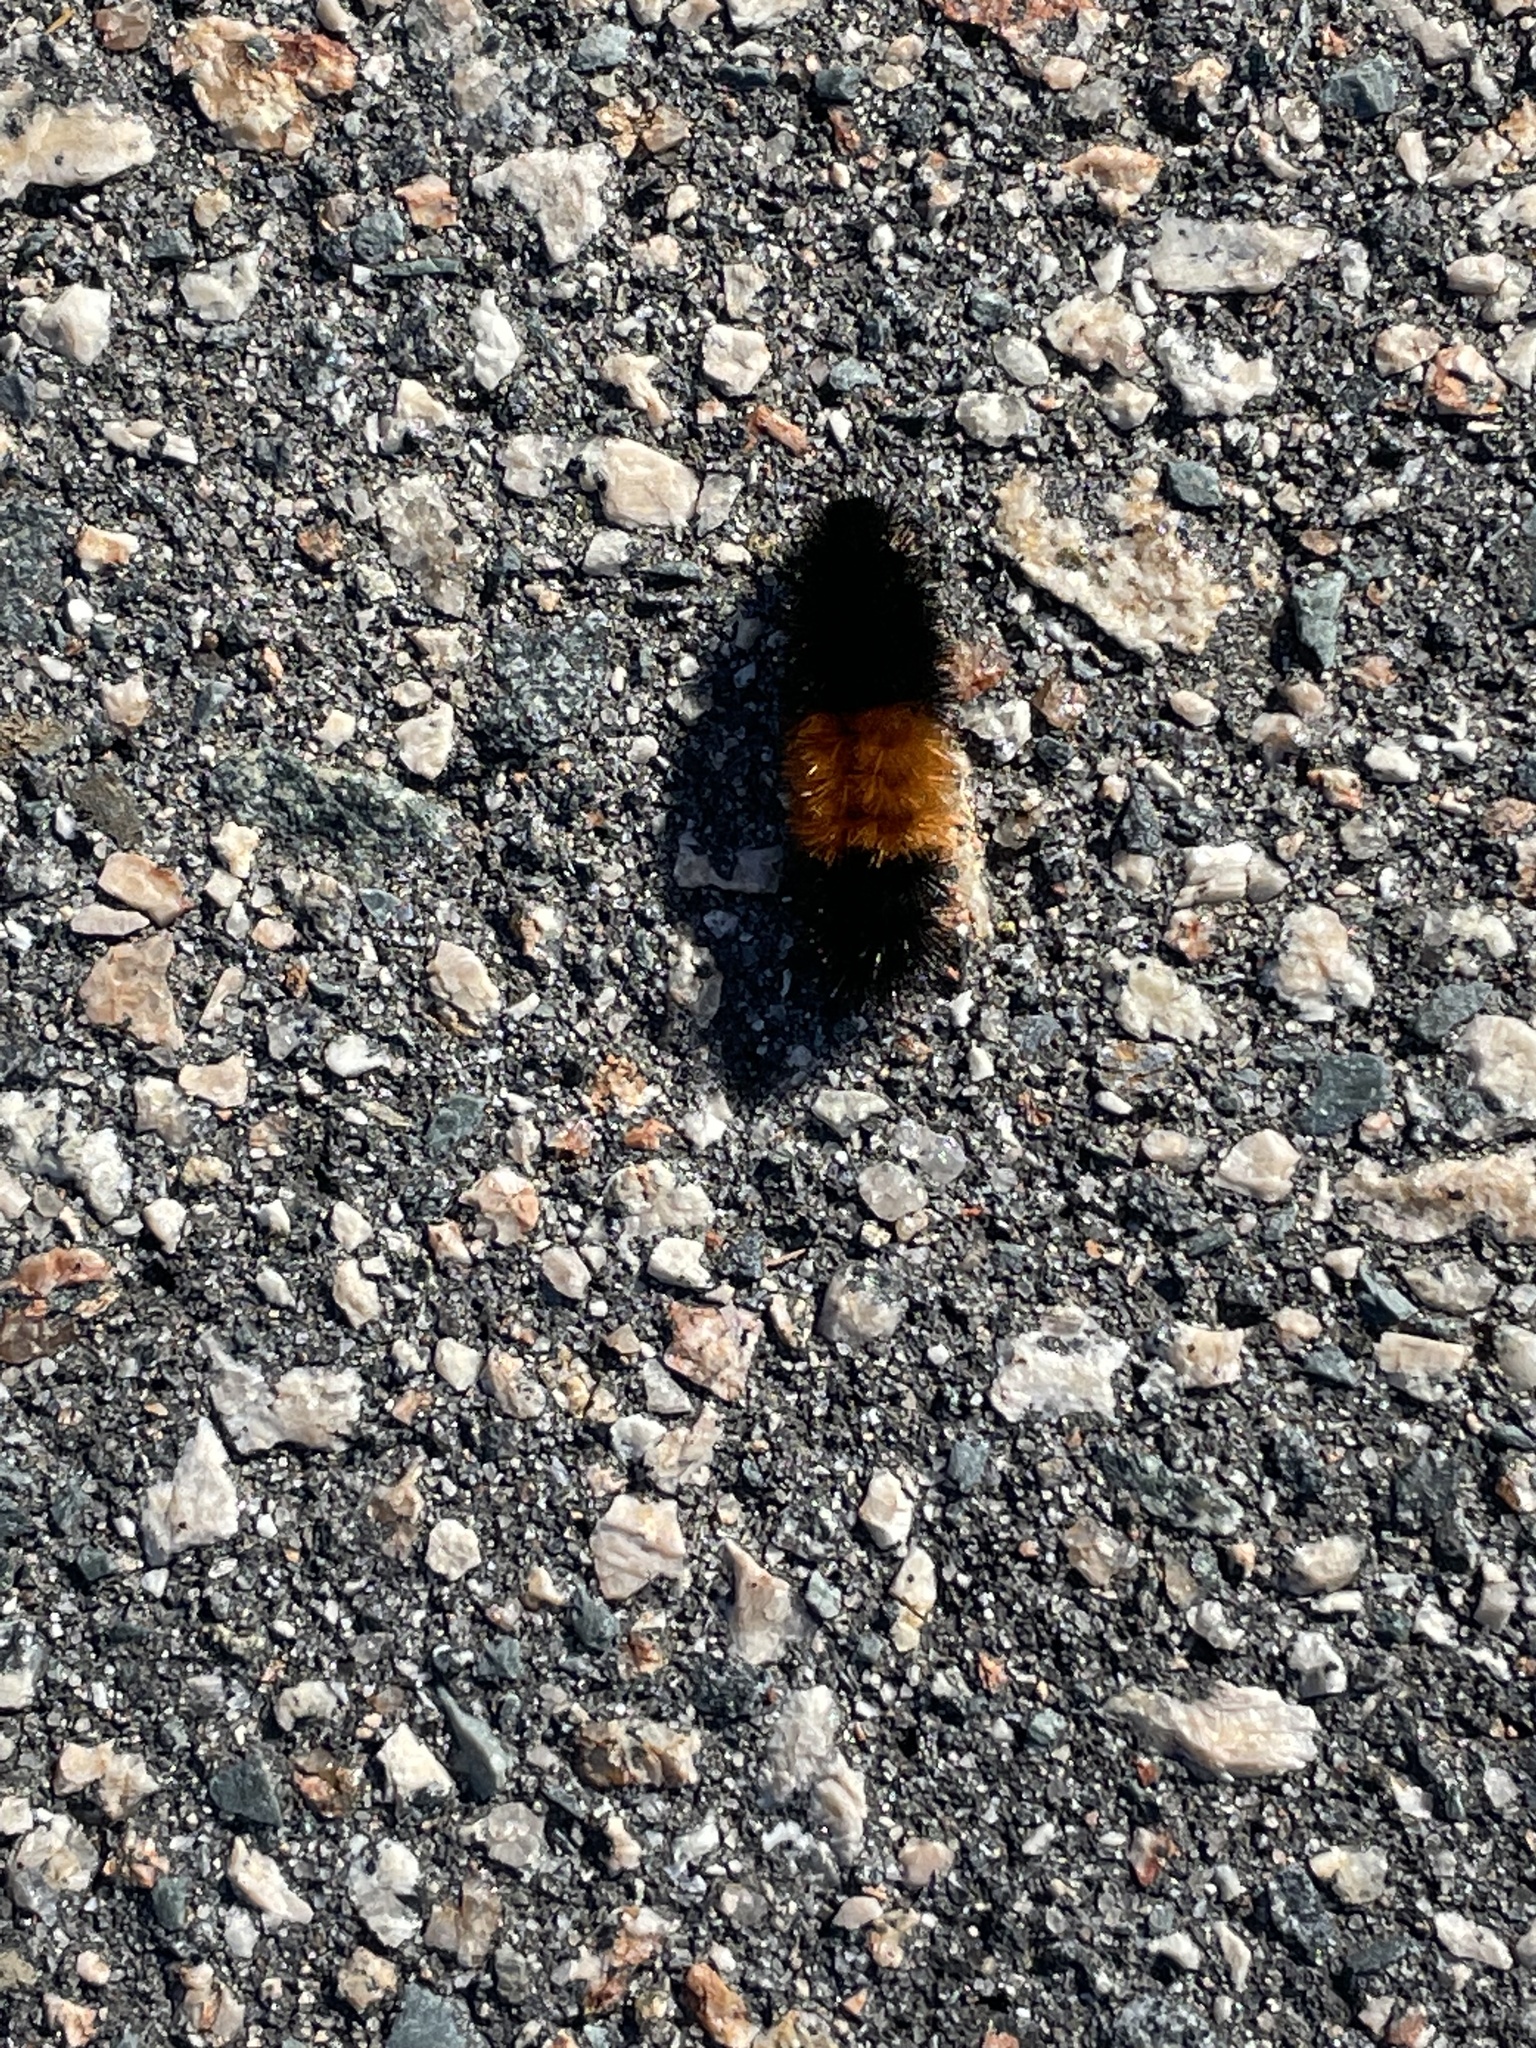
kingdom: Animalia
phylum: Arthropoda
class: Insecta
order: Lepidoptera
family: Erebidae
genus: Pyrrharctia
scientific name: Pyrrharctia isabella
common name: Isabella tiger moth
